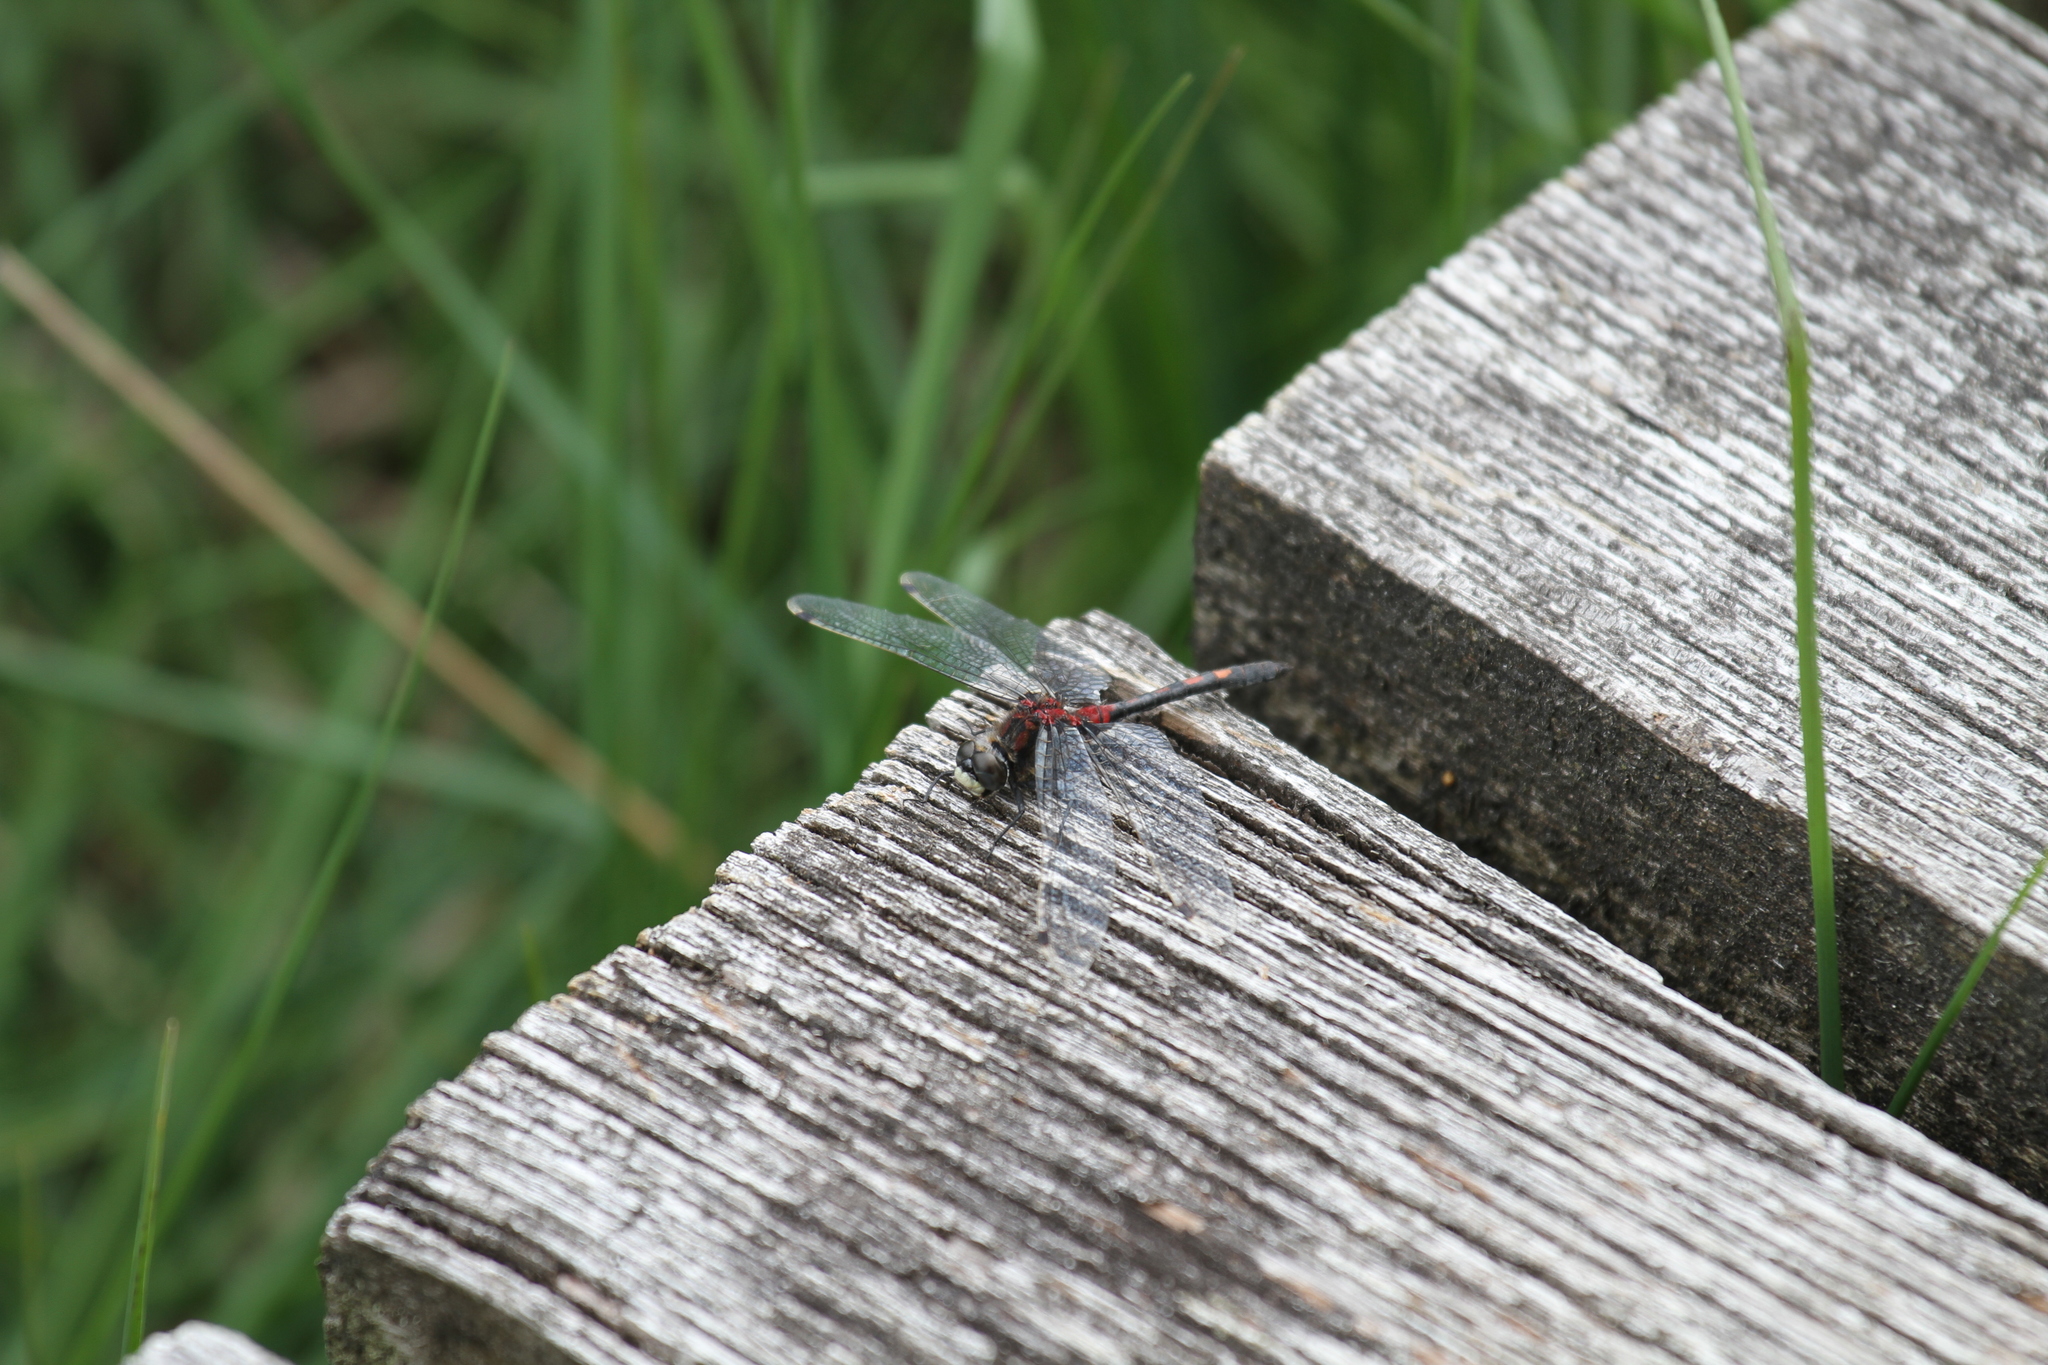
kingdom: Animalia
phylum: Arthropoda
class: Insecta
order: Odonata
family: Libellulidae
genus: Leucorrhinia
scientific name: Leucorrhinia dubia
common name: White-faced darter
